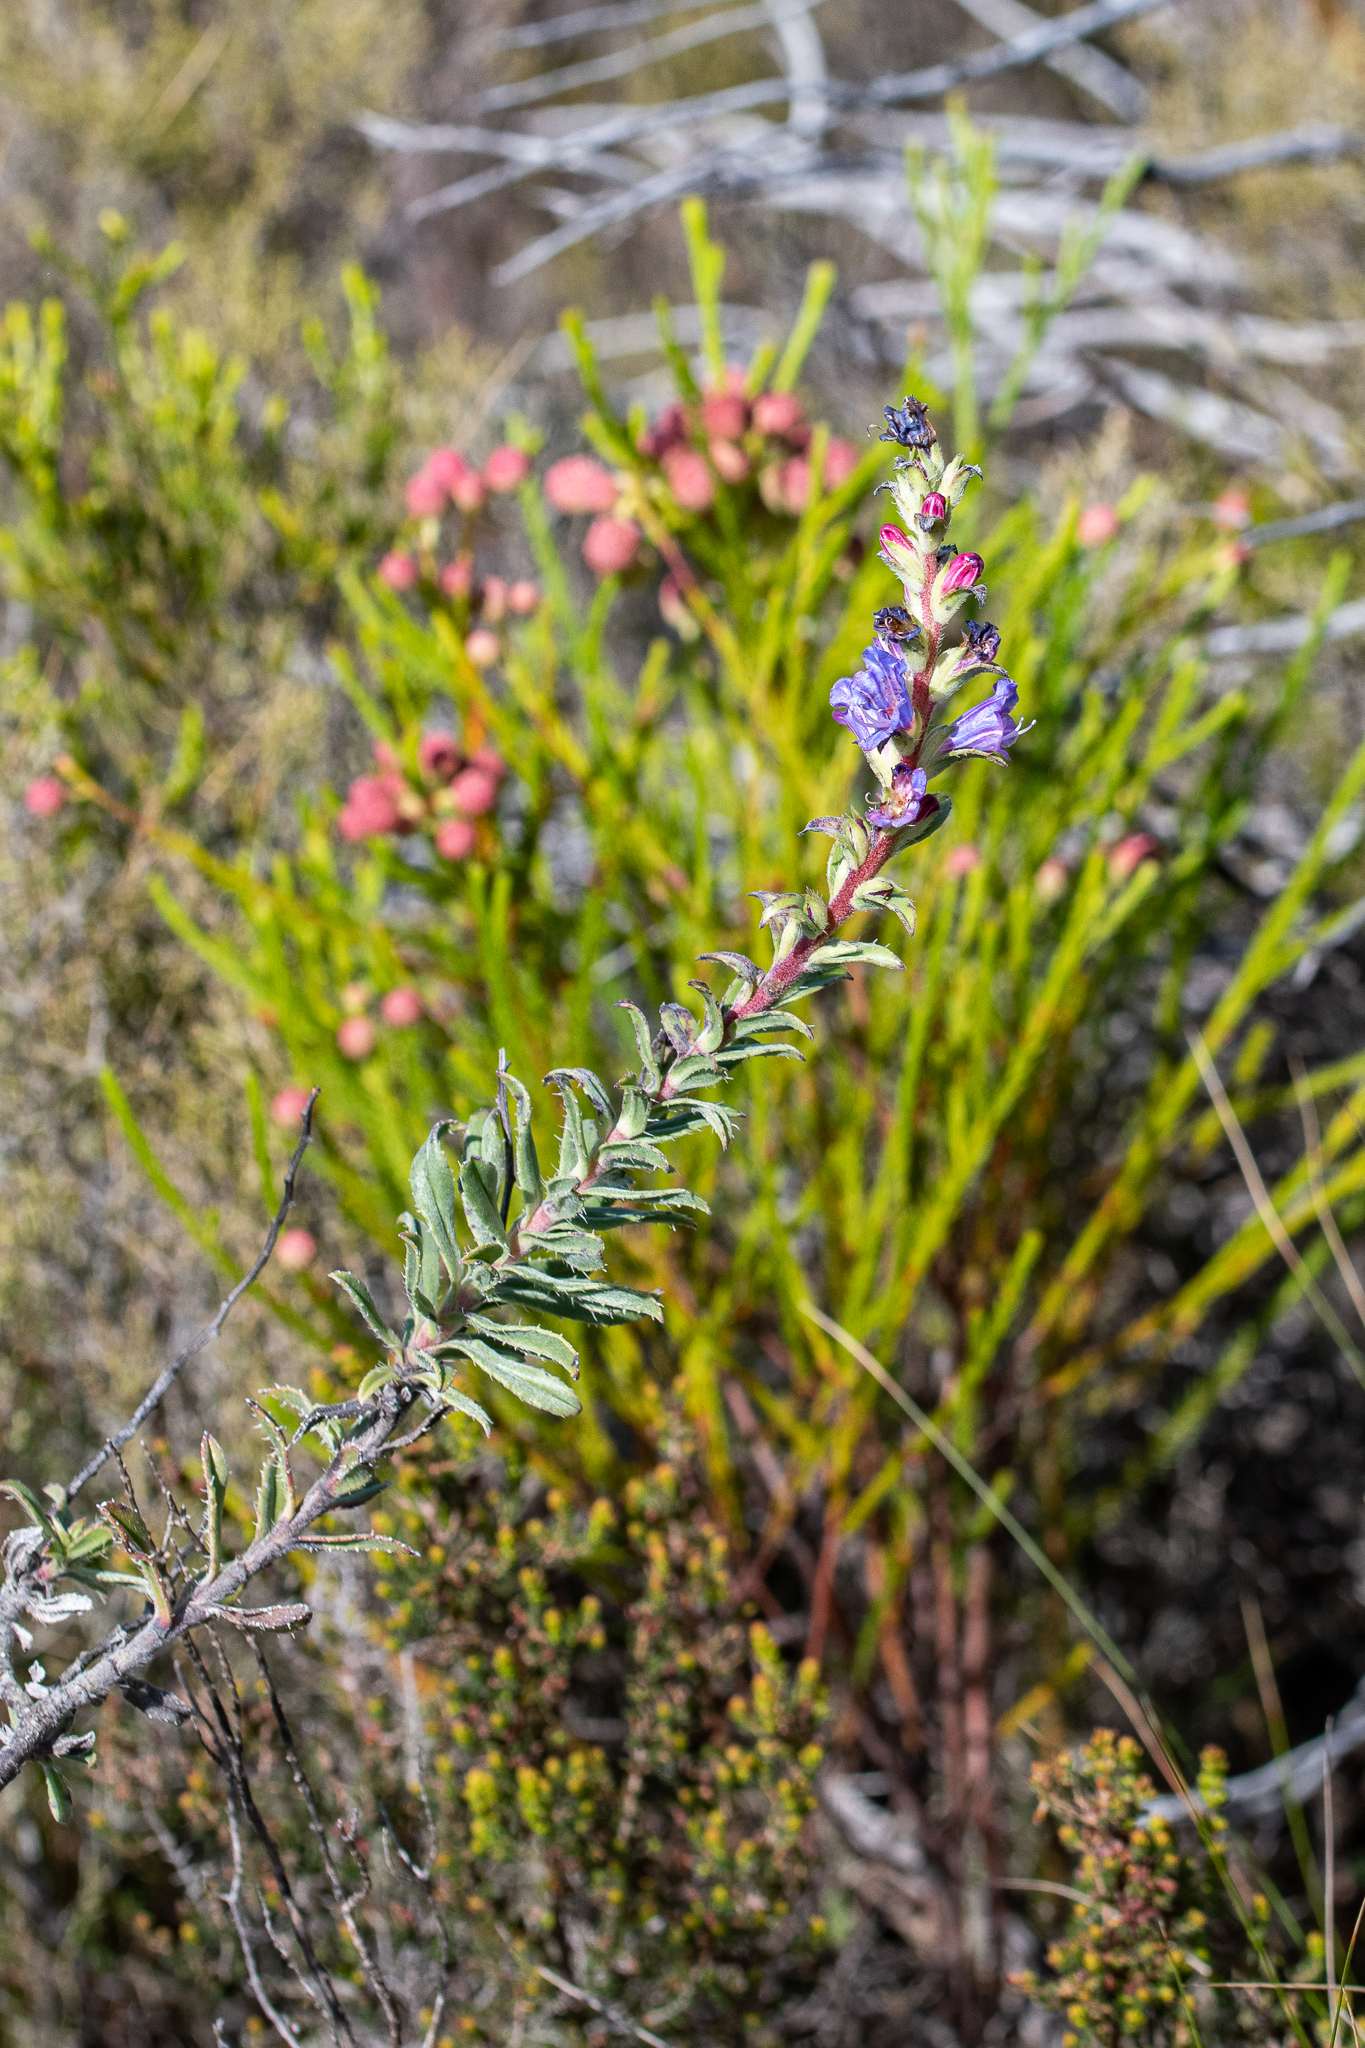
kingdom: Plantae
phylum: Tracheophyta
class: Magnoliopsida
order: Boraginales
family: Boraginaceae
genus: Lobostemon
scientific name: Lobostemon argenteus
